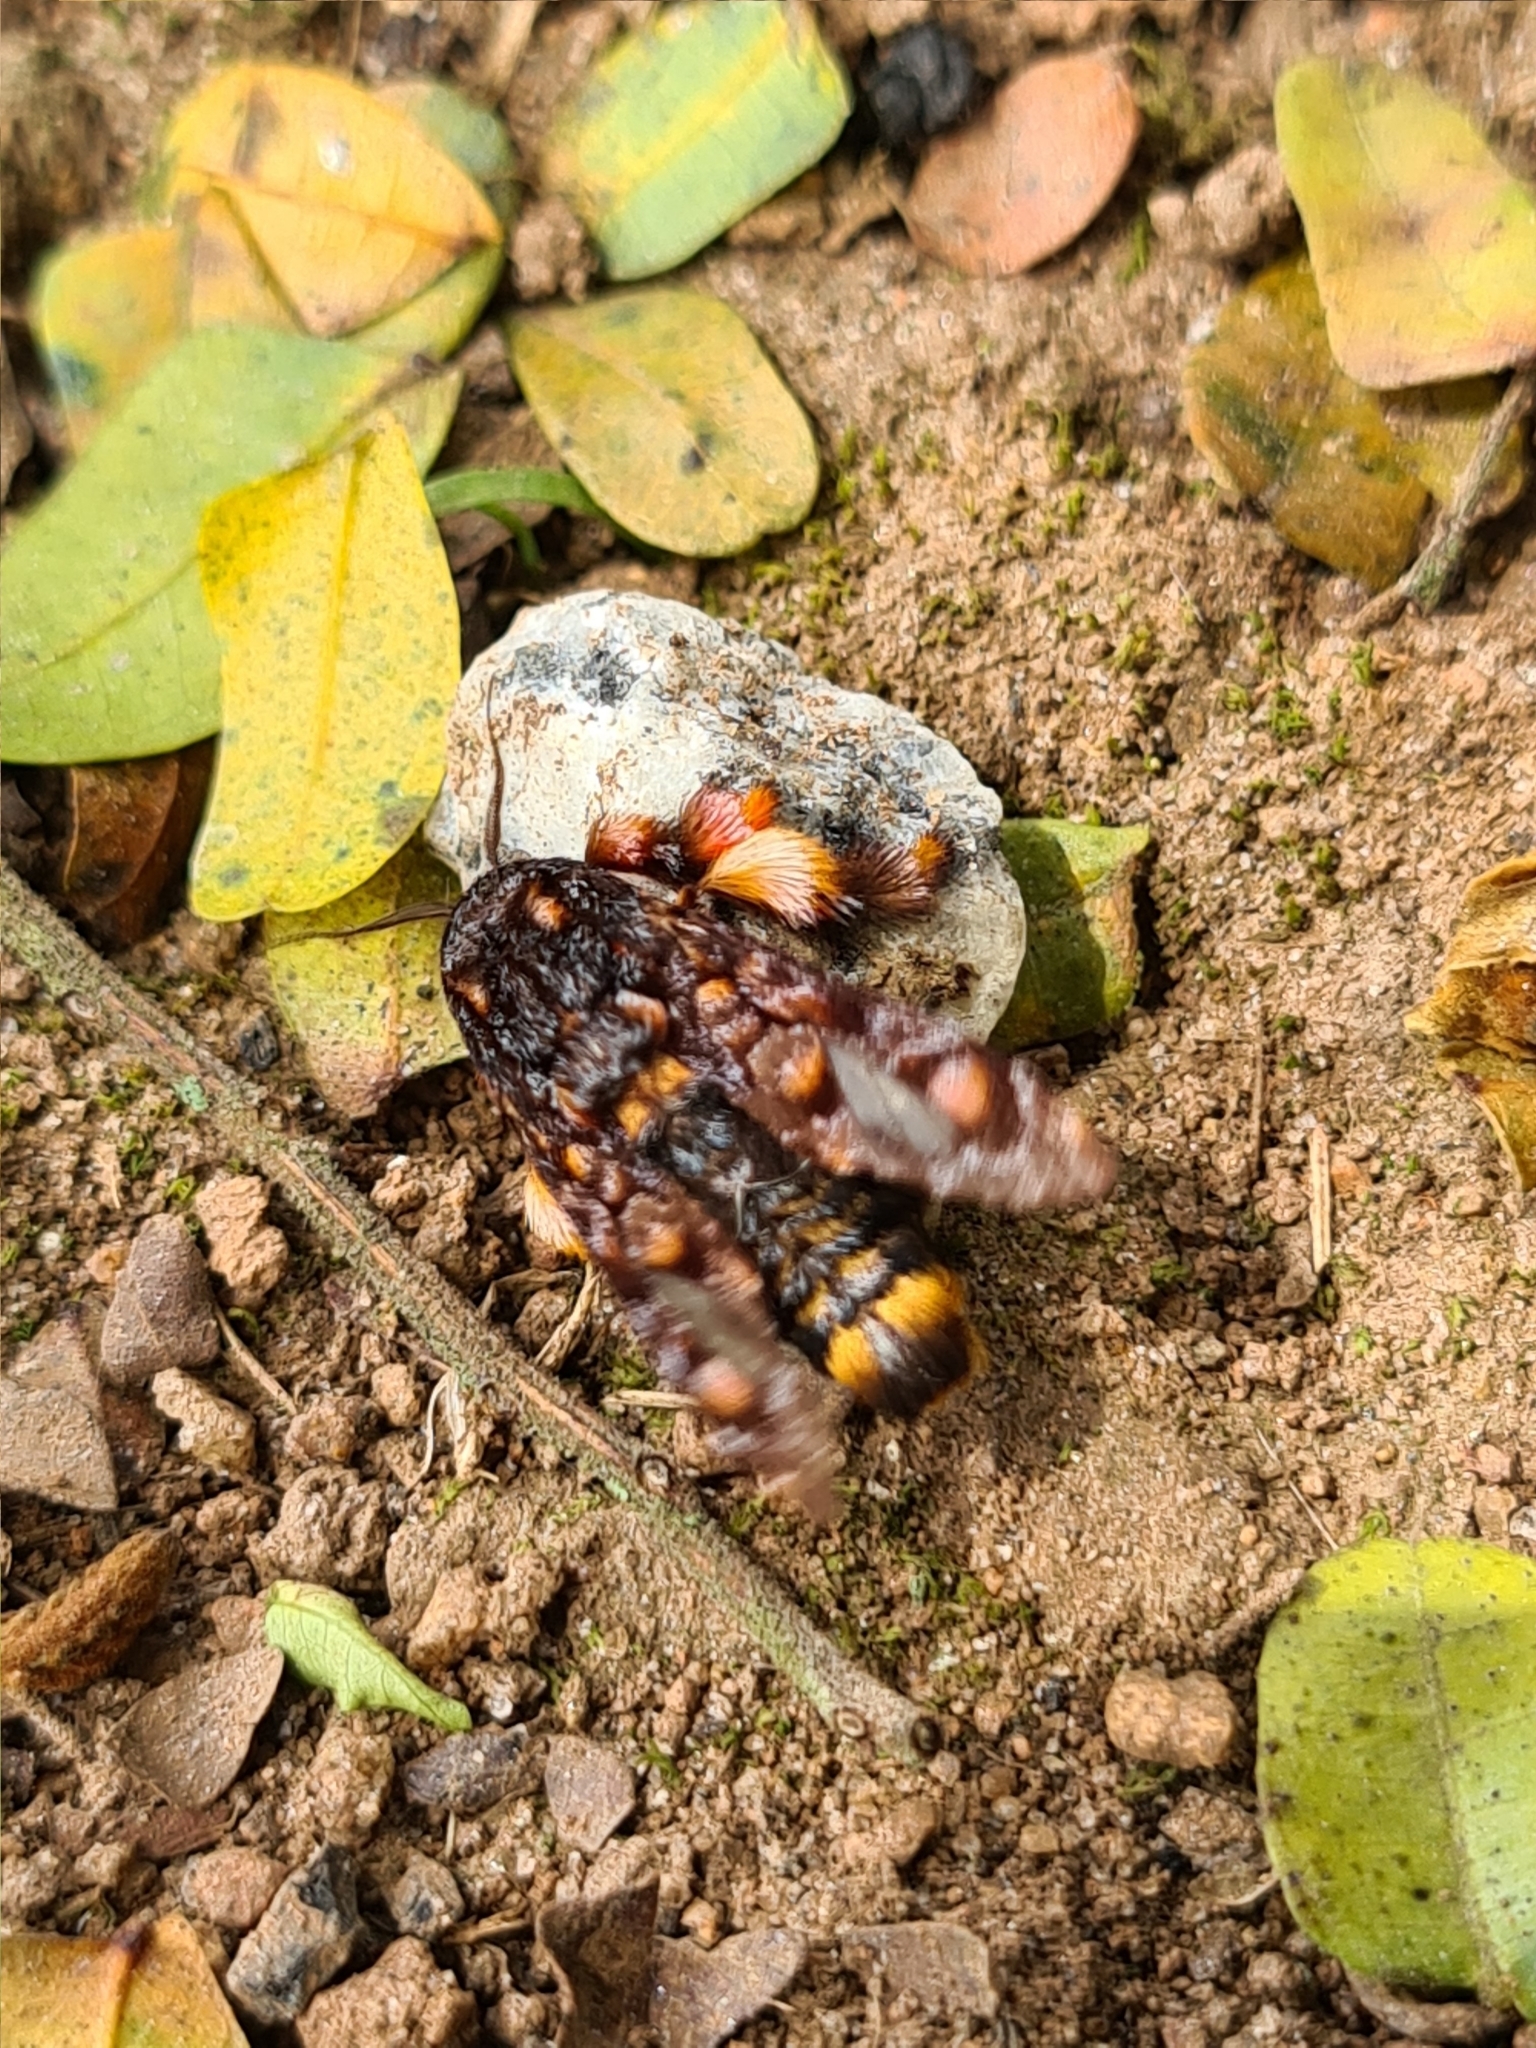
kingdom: Animalia
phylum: Arthropoda
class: Insecta
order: Lepidoptera
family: Limacodidae
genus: Phobetron
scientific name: Phobetron hipparchia
